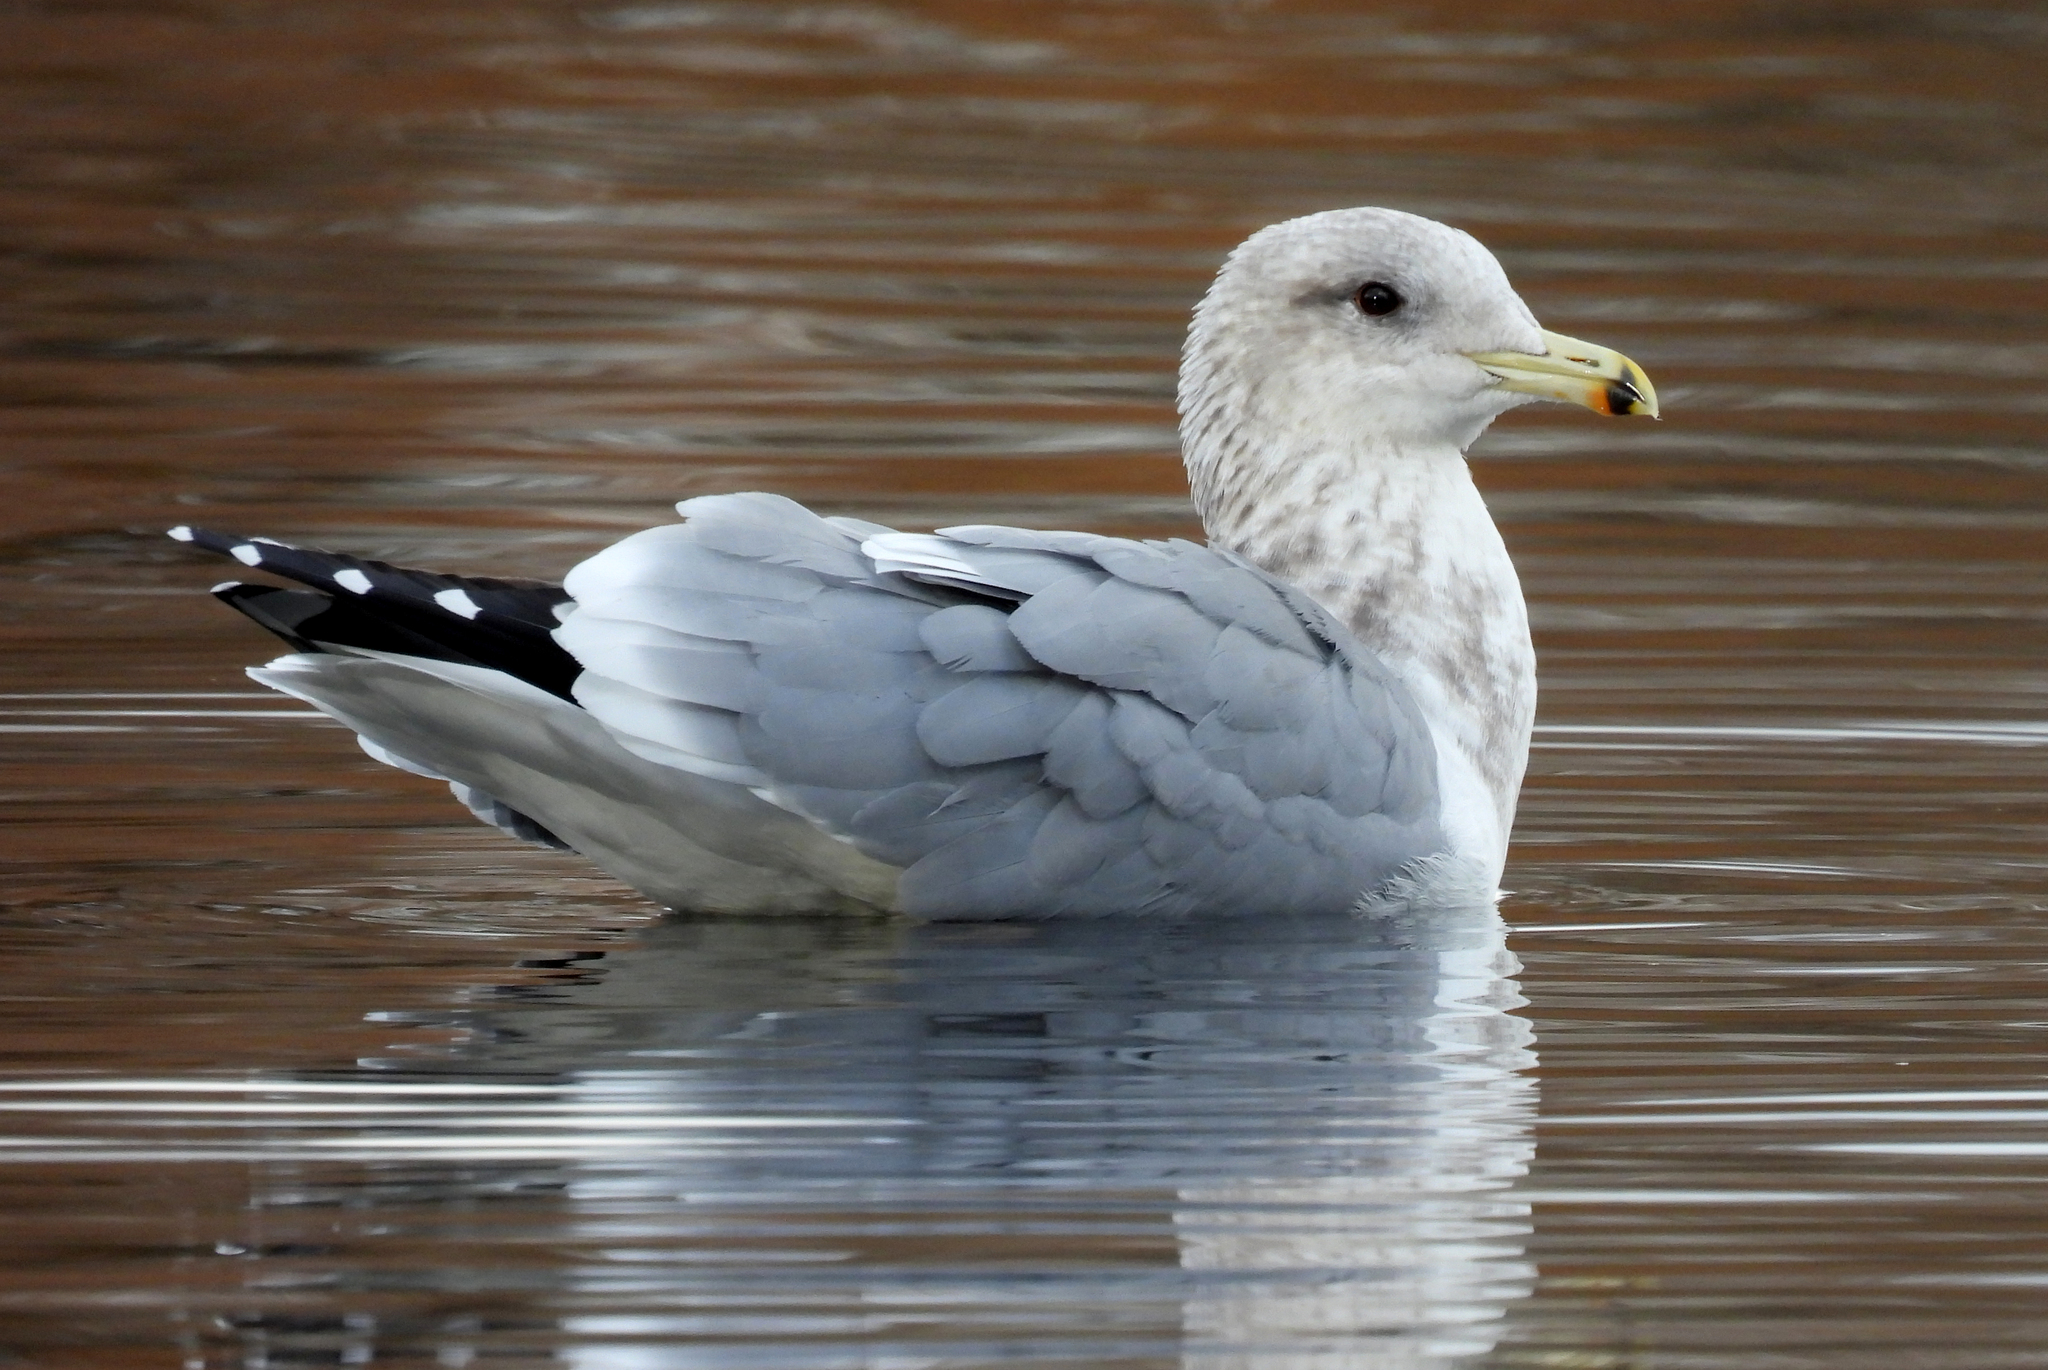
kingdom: Animalia
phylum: Chordata
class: Aves
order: Charadriiformes
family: Laridae
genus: Larus
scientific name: Larus californicus
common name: California gull
